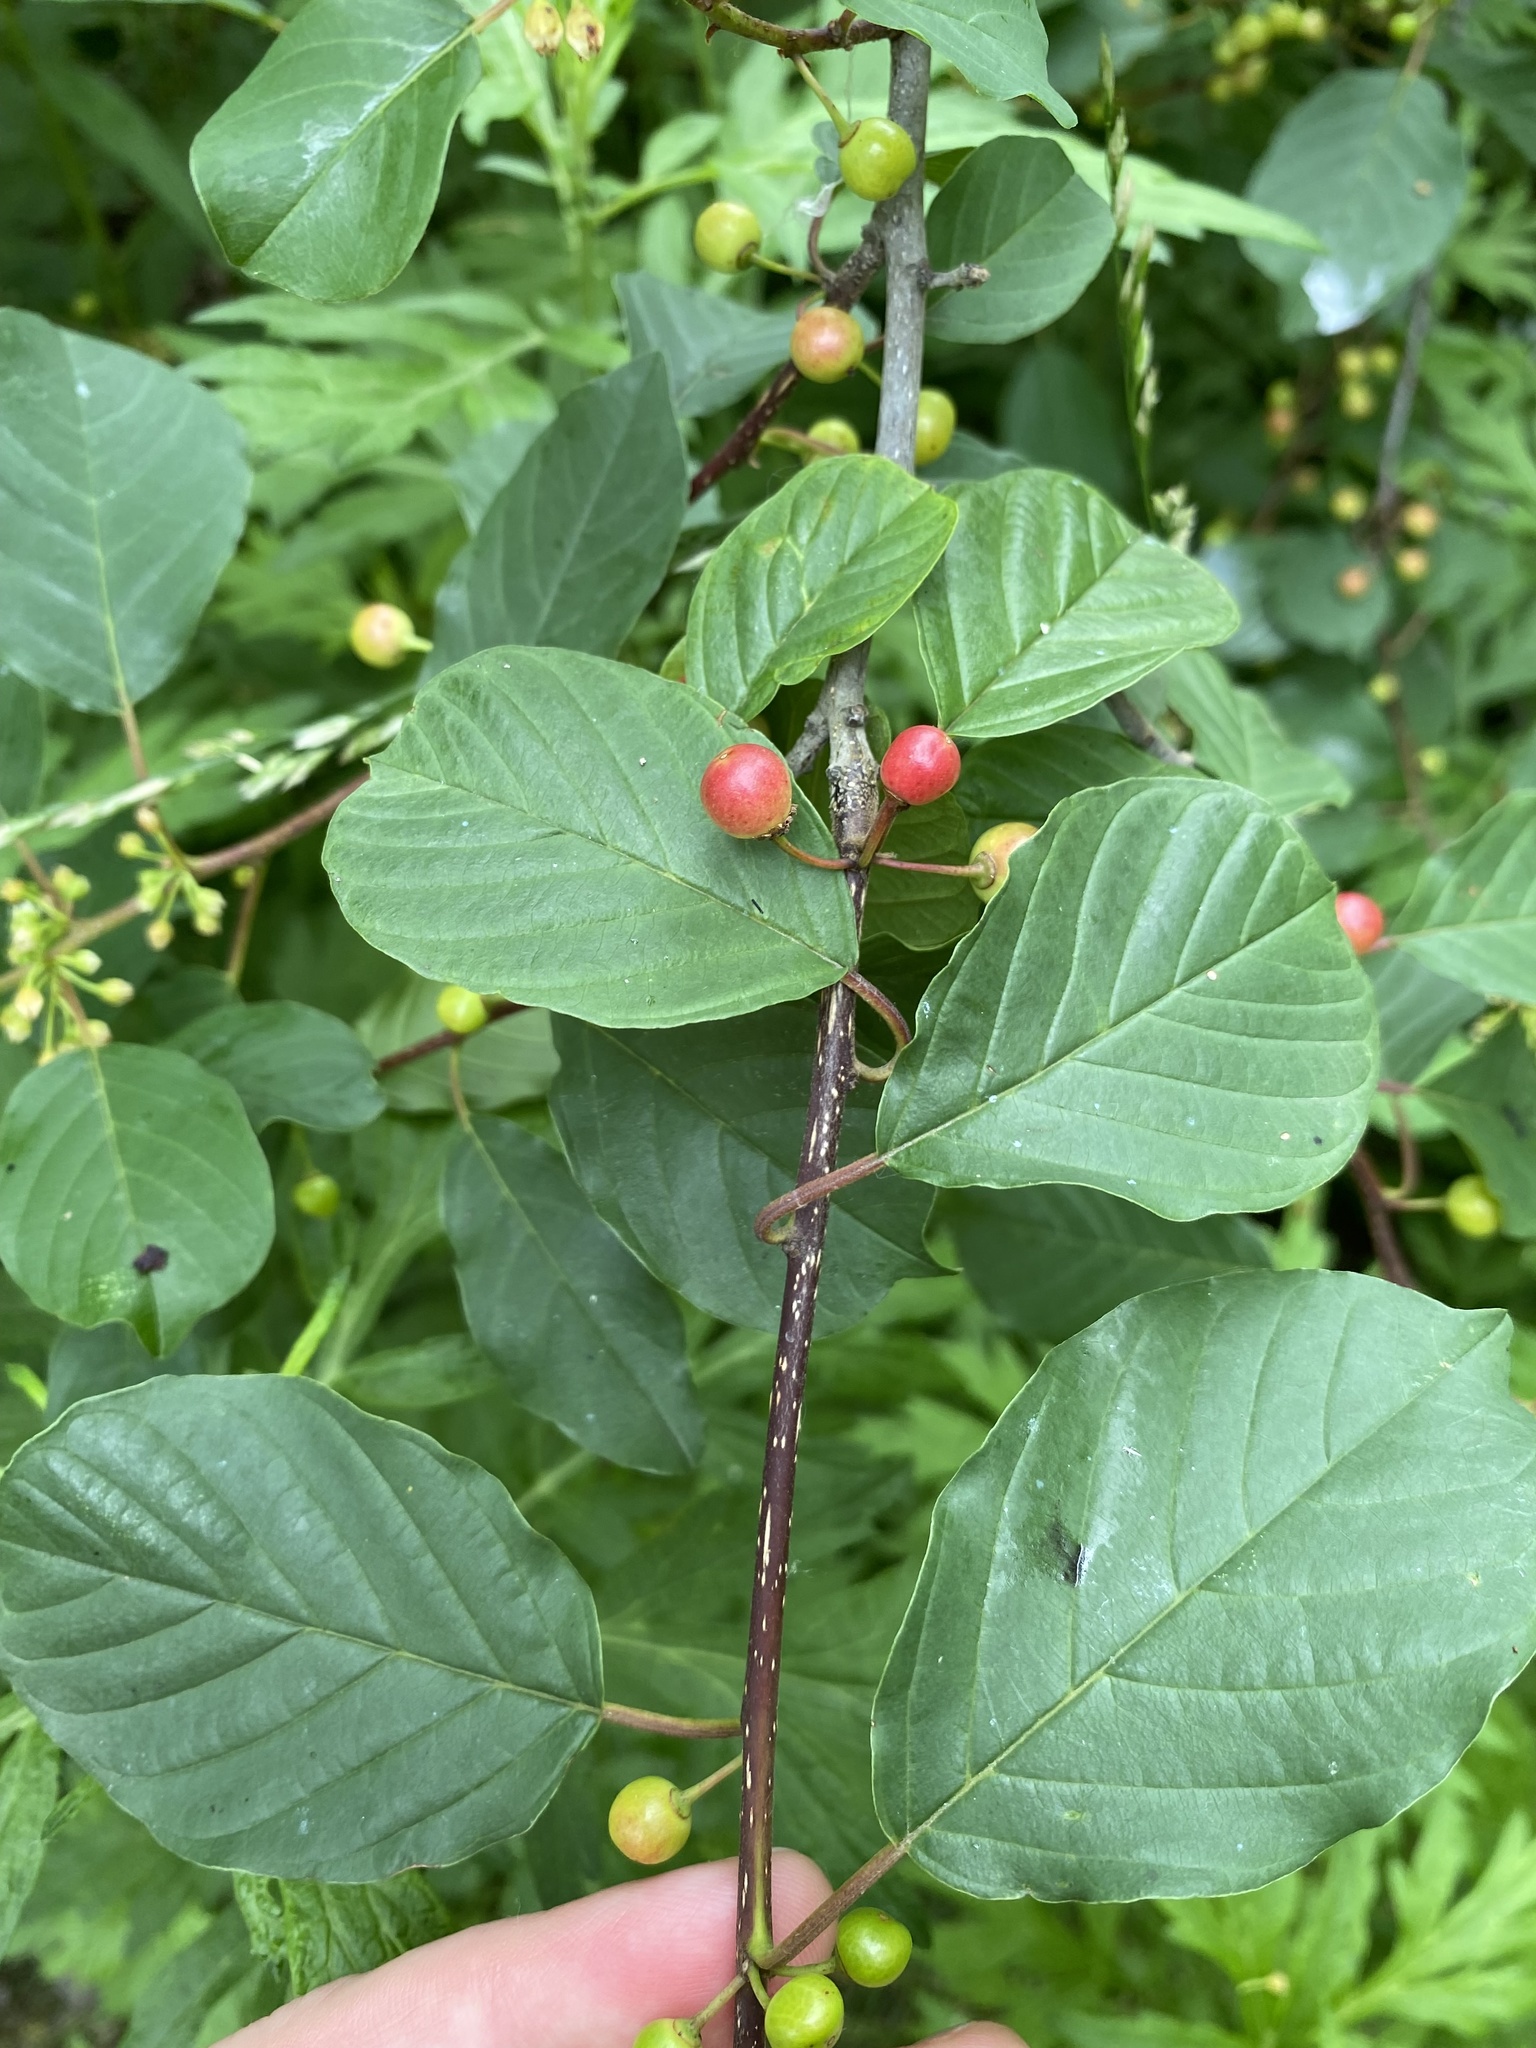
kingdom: Plantae
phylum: Tracheophyta
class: Magnoliopsida
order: Rosales
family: Rhamnaceae
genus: Frangula
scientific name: Frangula alnus
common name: Alder buckthorn
